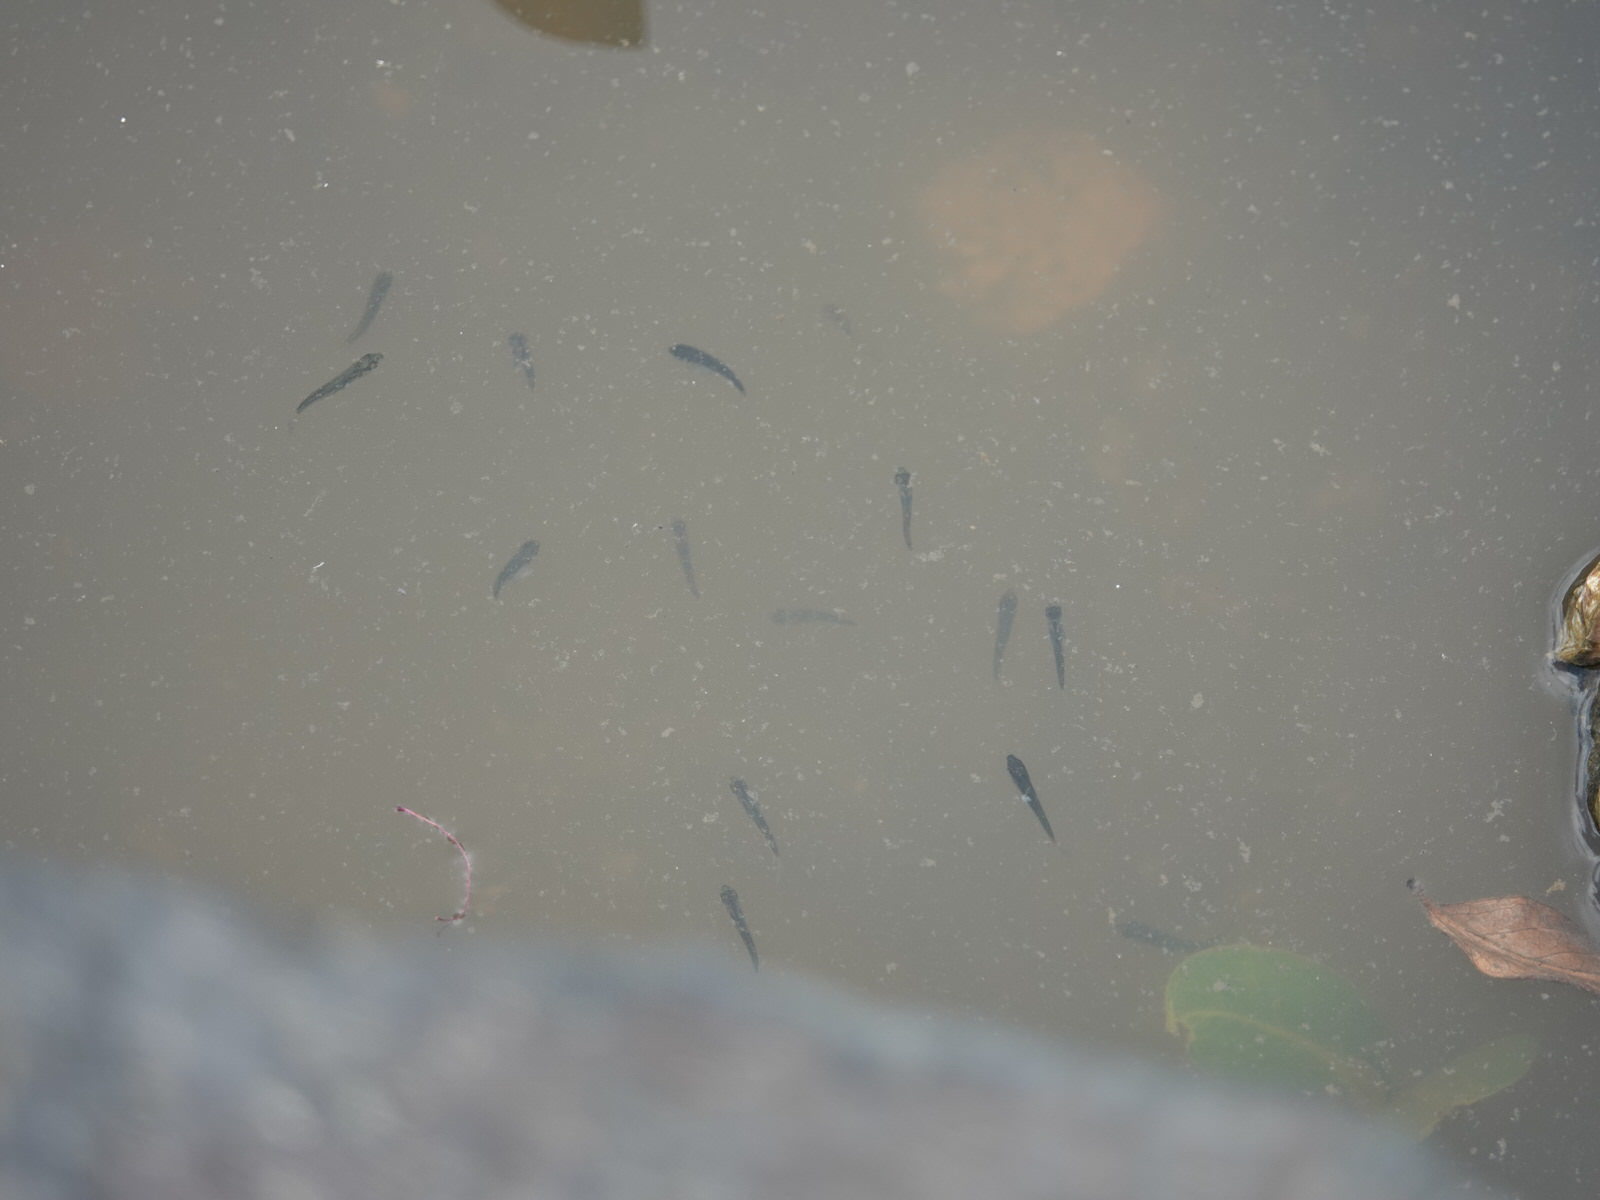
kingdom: Animalia
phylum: Chordata
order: Mugiliformes
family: Mugilidae
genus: Aldrichetta
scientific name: Aldrichetta forsteri
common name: Yellow-eye mullet
